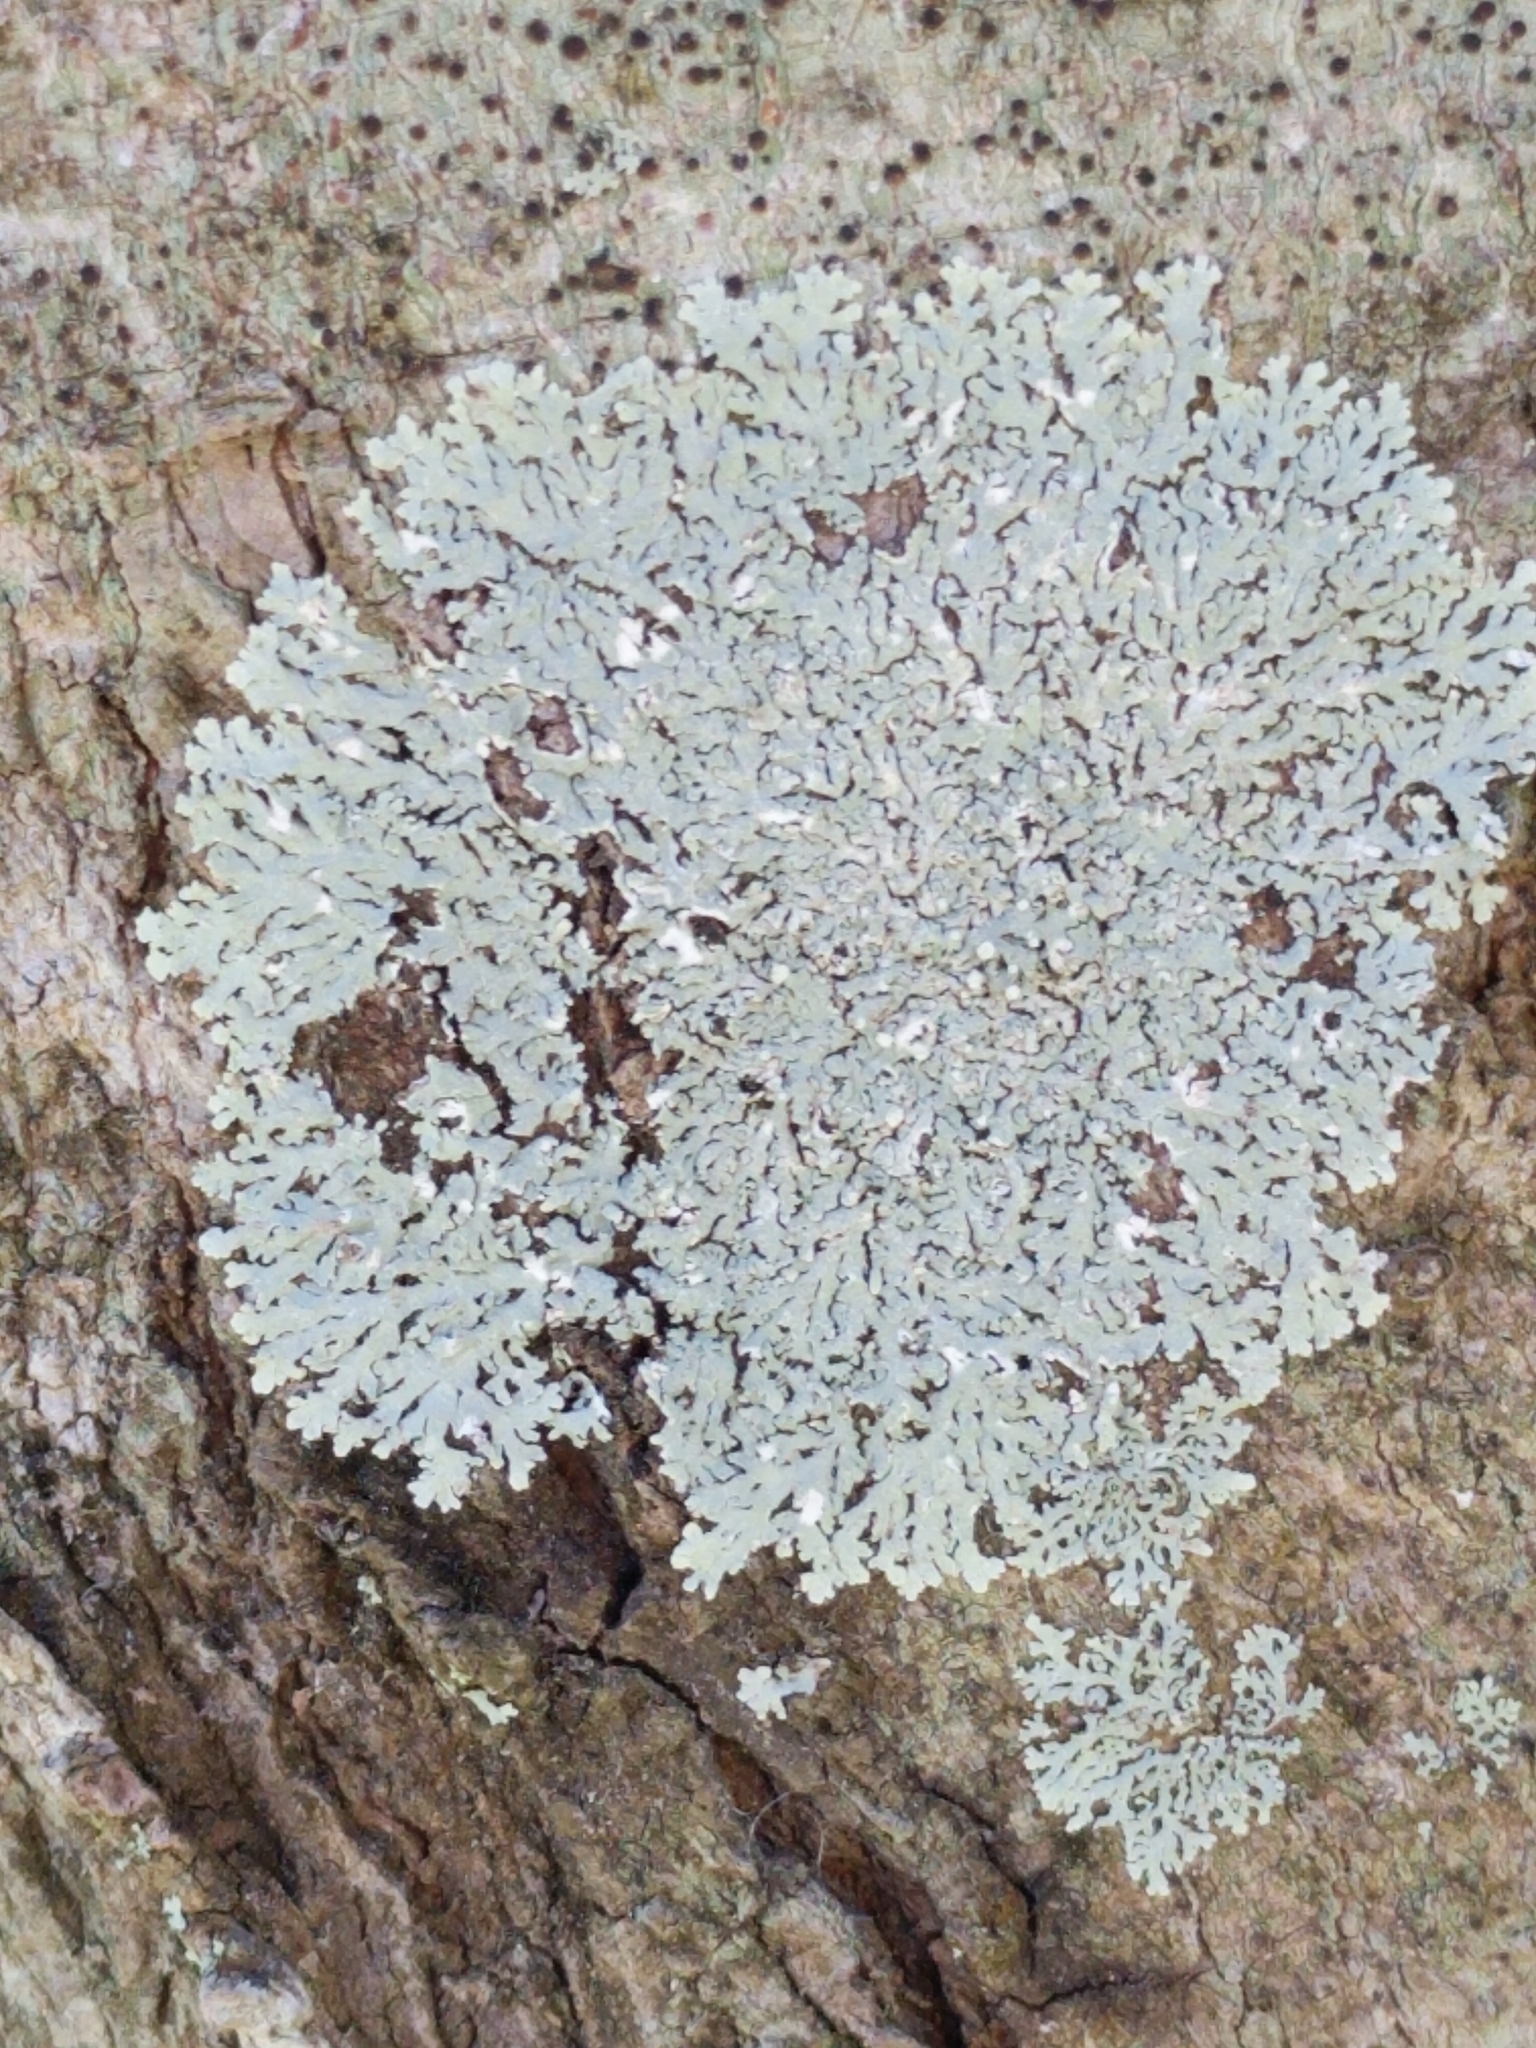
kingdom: Fungi
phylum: Ascomycota
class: Lecanoromycetes
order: Caliciales
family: Physciaceae
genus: Physcia
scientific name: Physcia americana
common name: American rosette lichen
